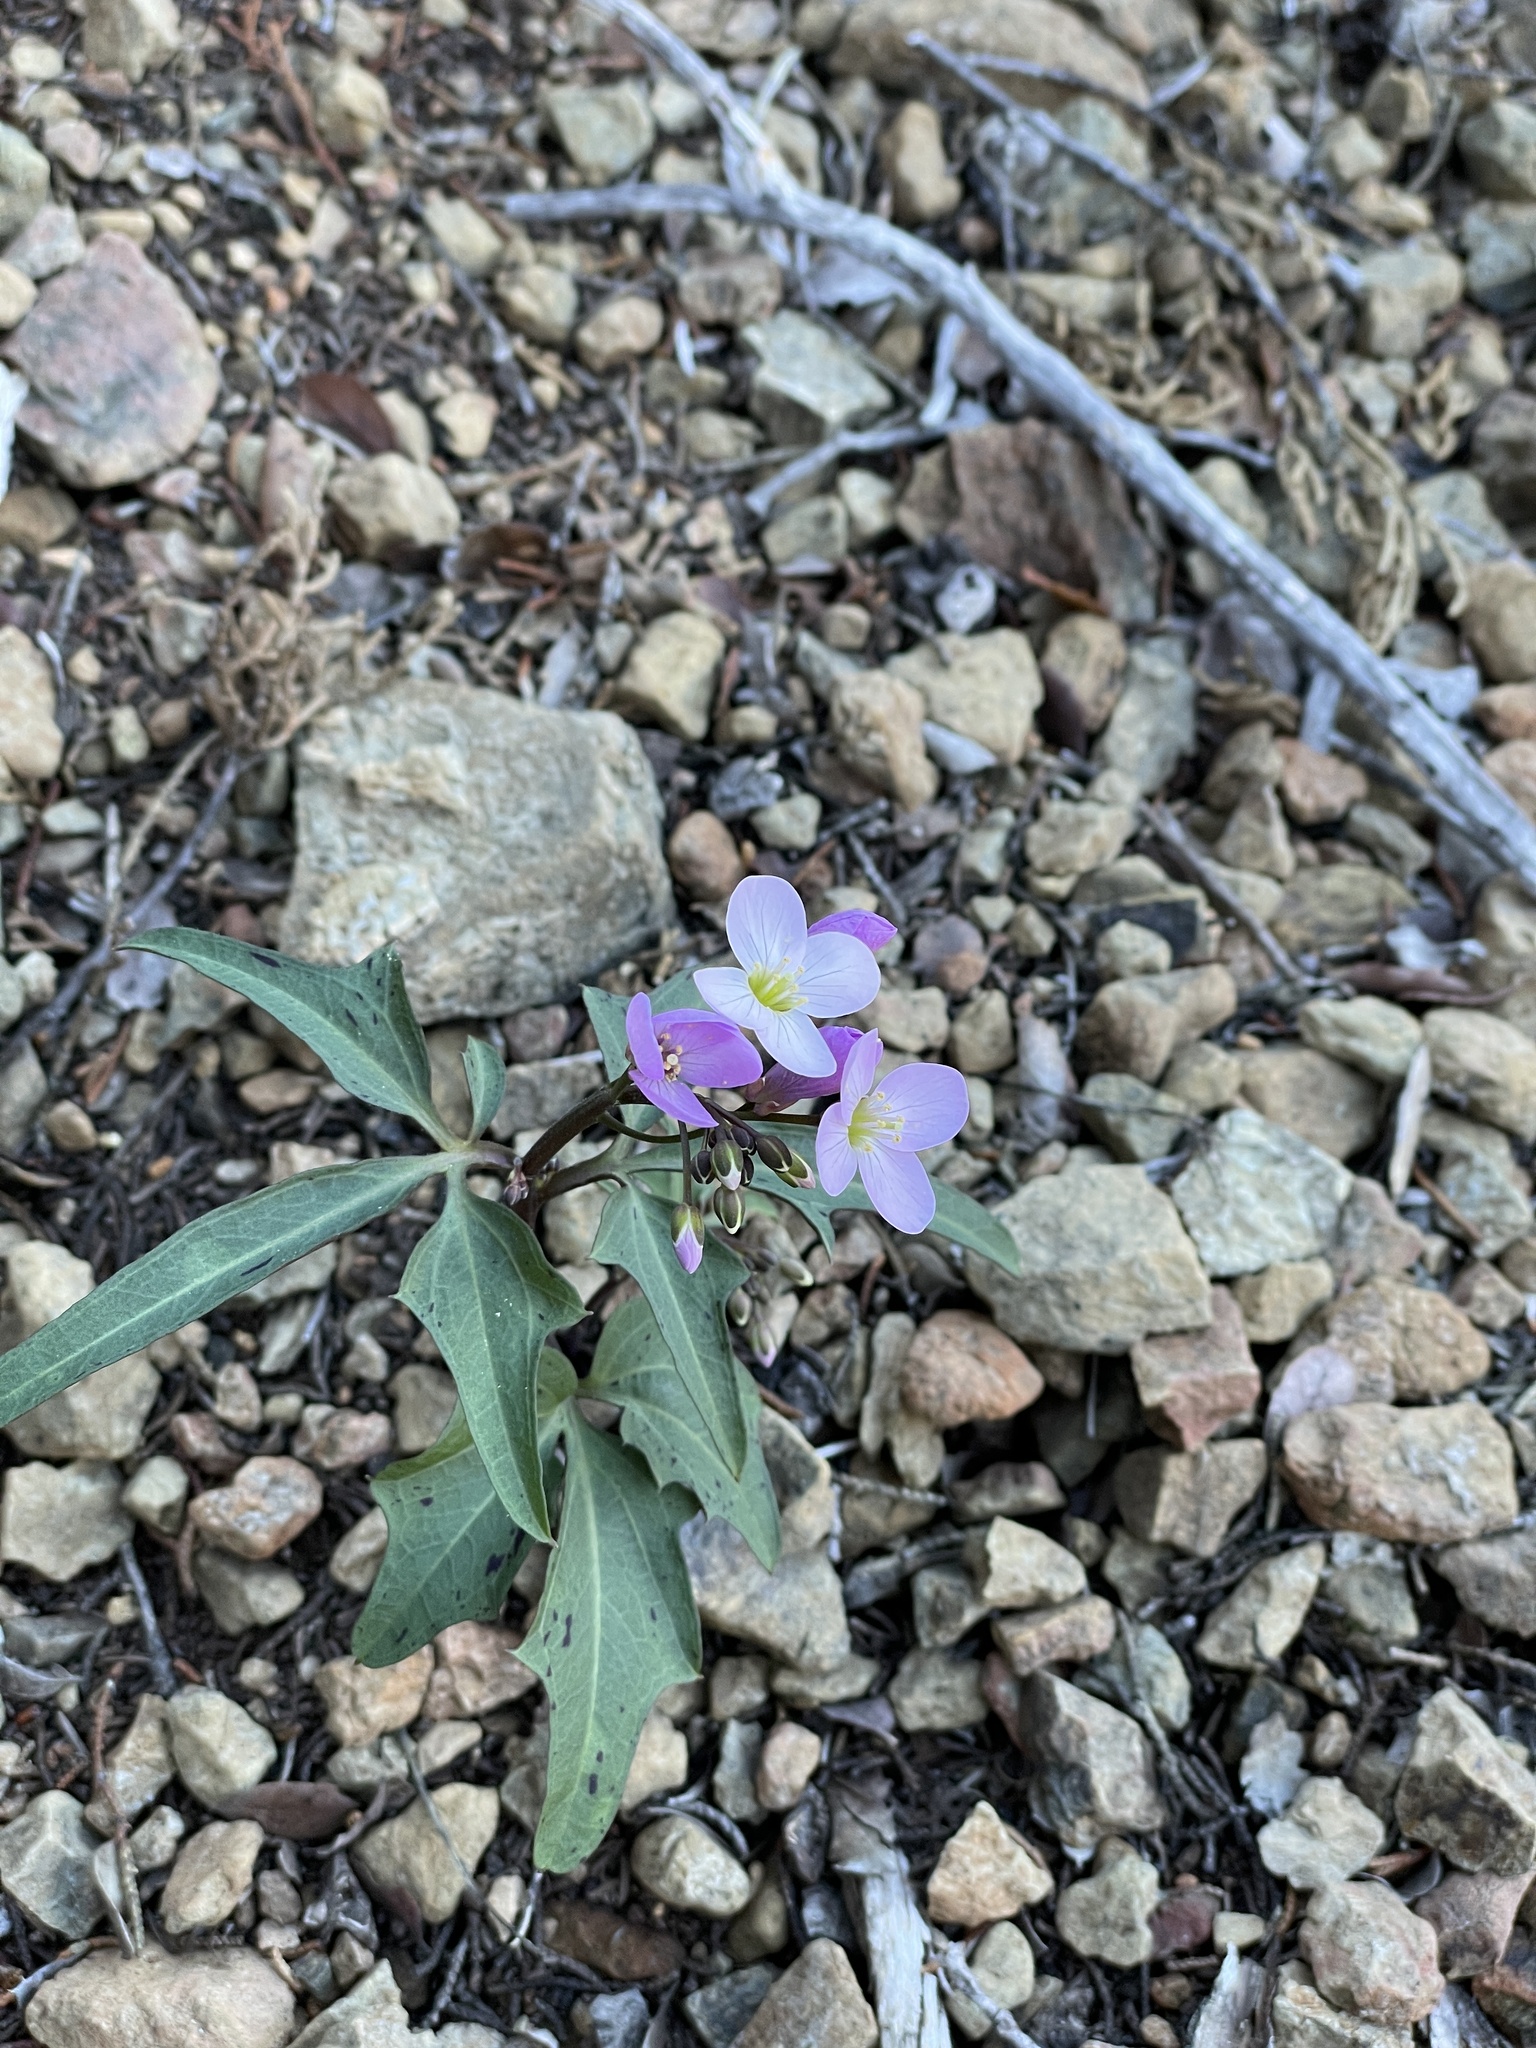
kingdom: Plantae
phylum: Tracheophyta
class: Magnoliopsida
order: Brassicales
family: Brassicaceae
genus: Cardamine
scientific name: Cardamine californica
